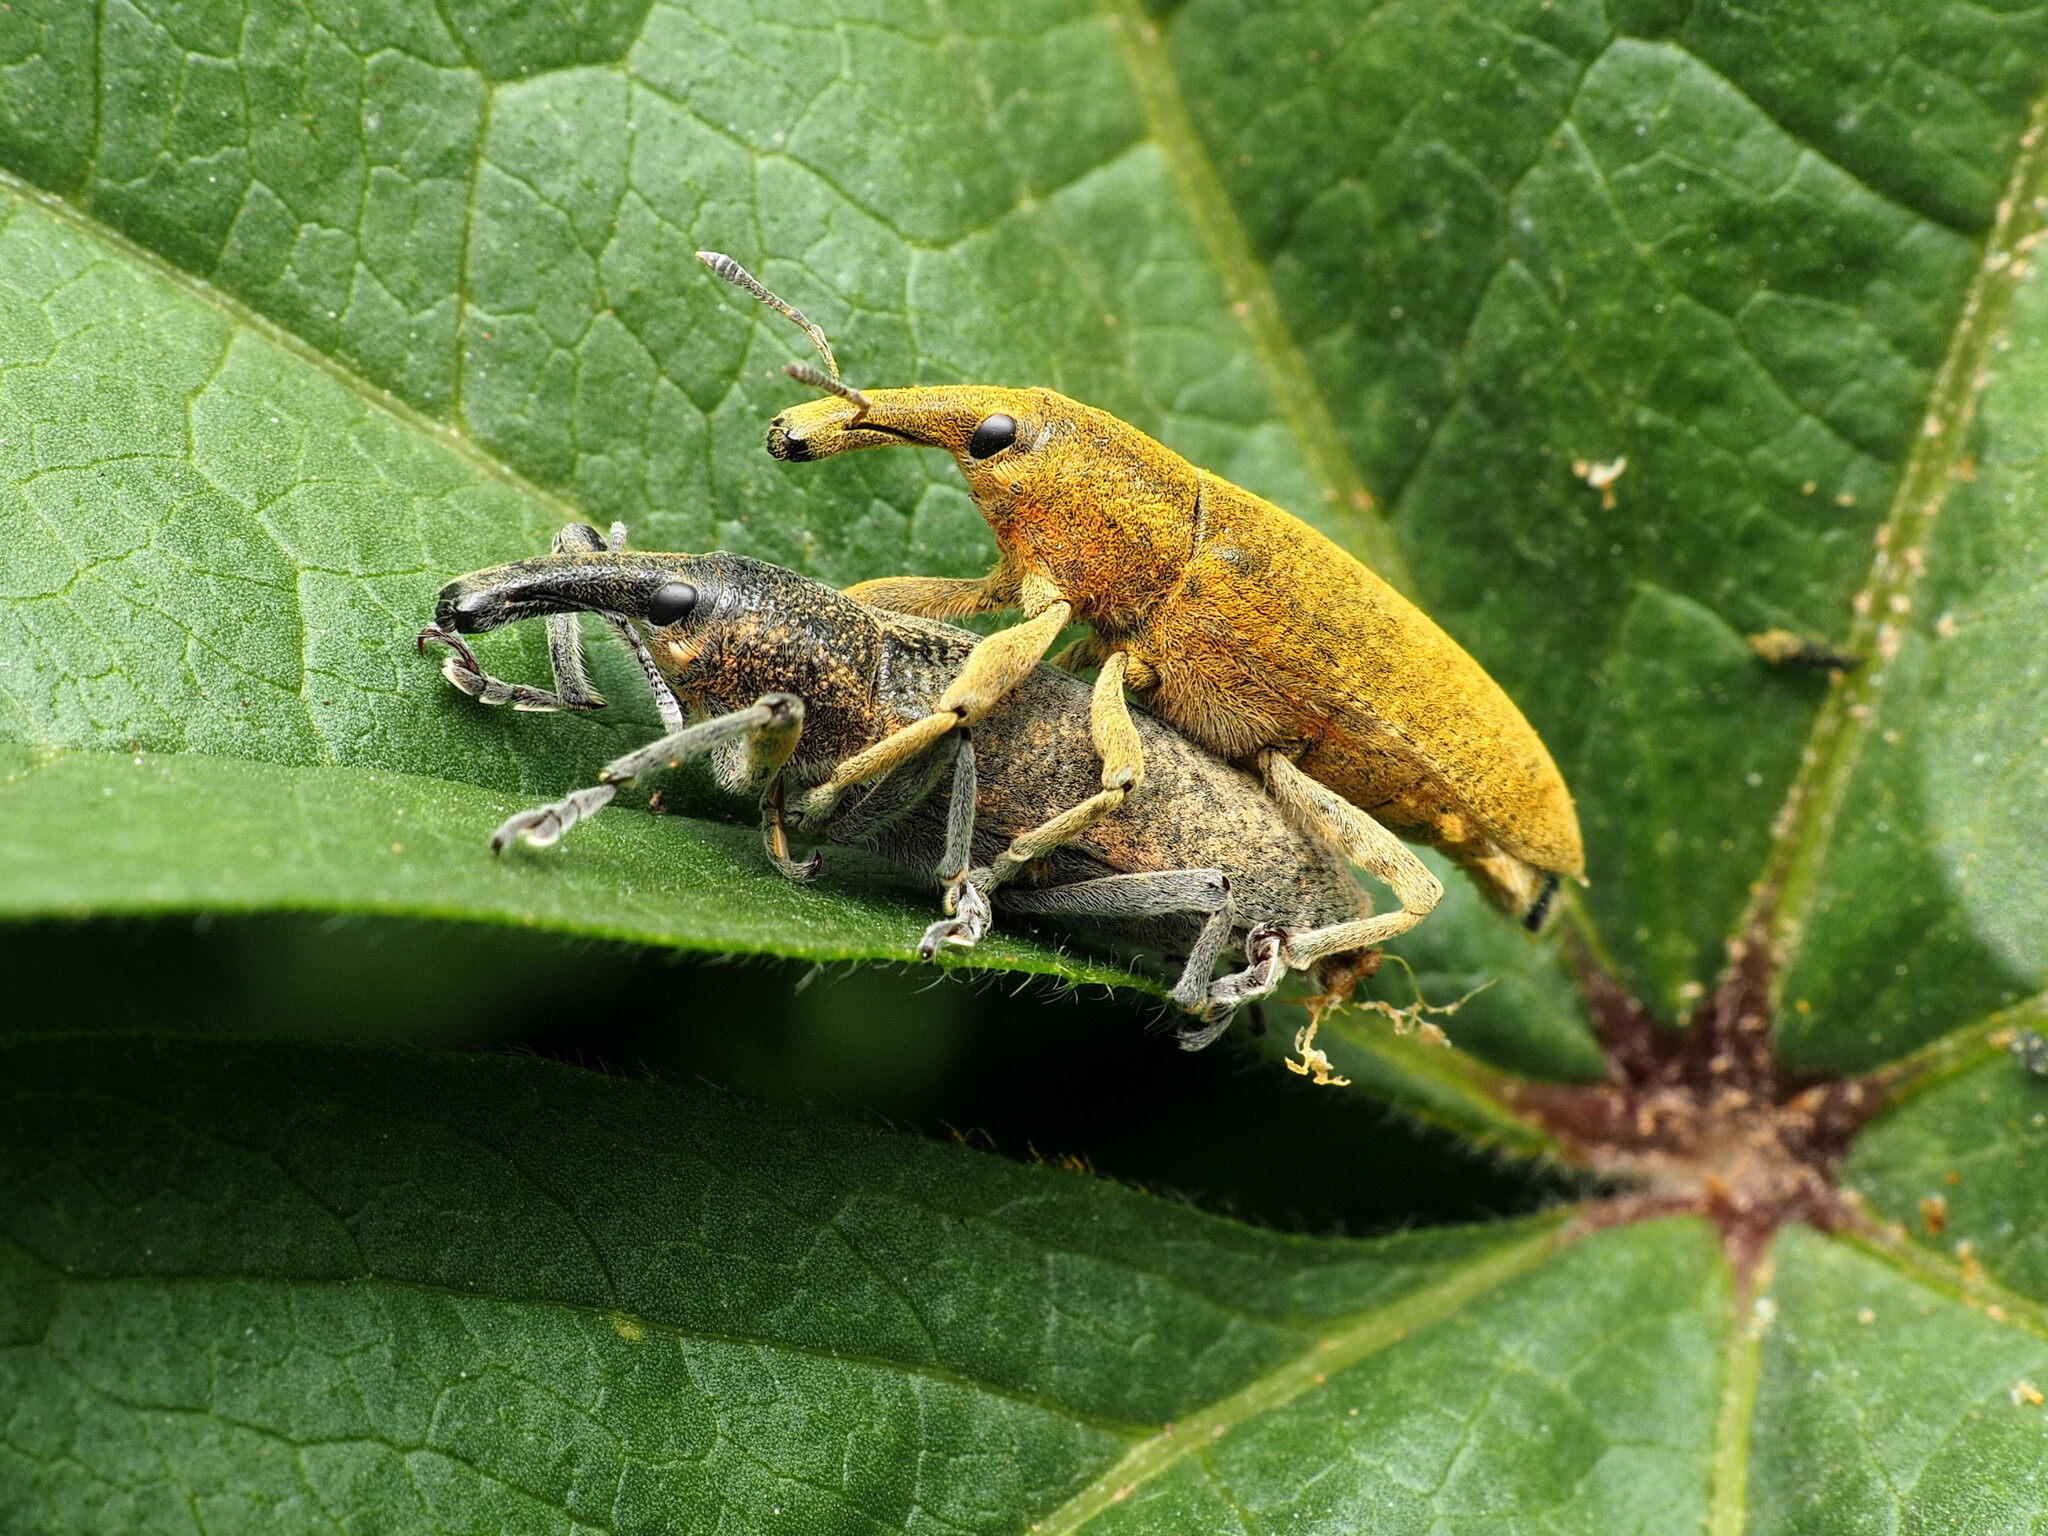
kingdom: Animalia
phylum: Arthropoda
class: Insecta
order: Coleoptera
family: Curculionidae
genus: Lixus
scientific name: Lixus pulverulentus
